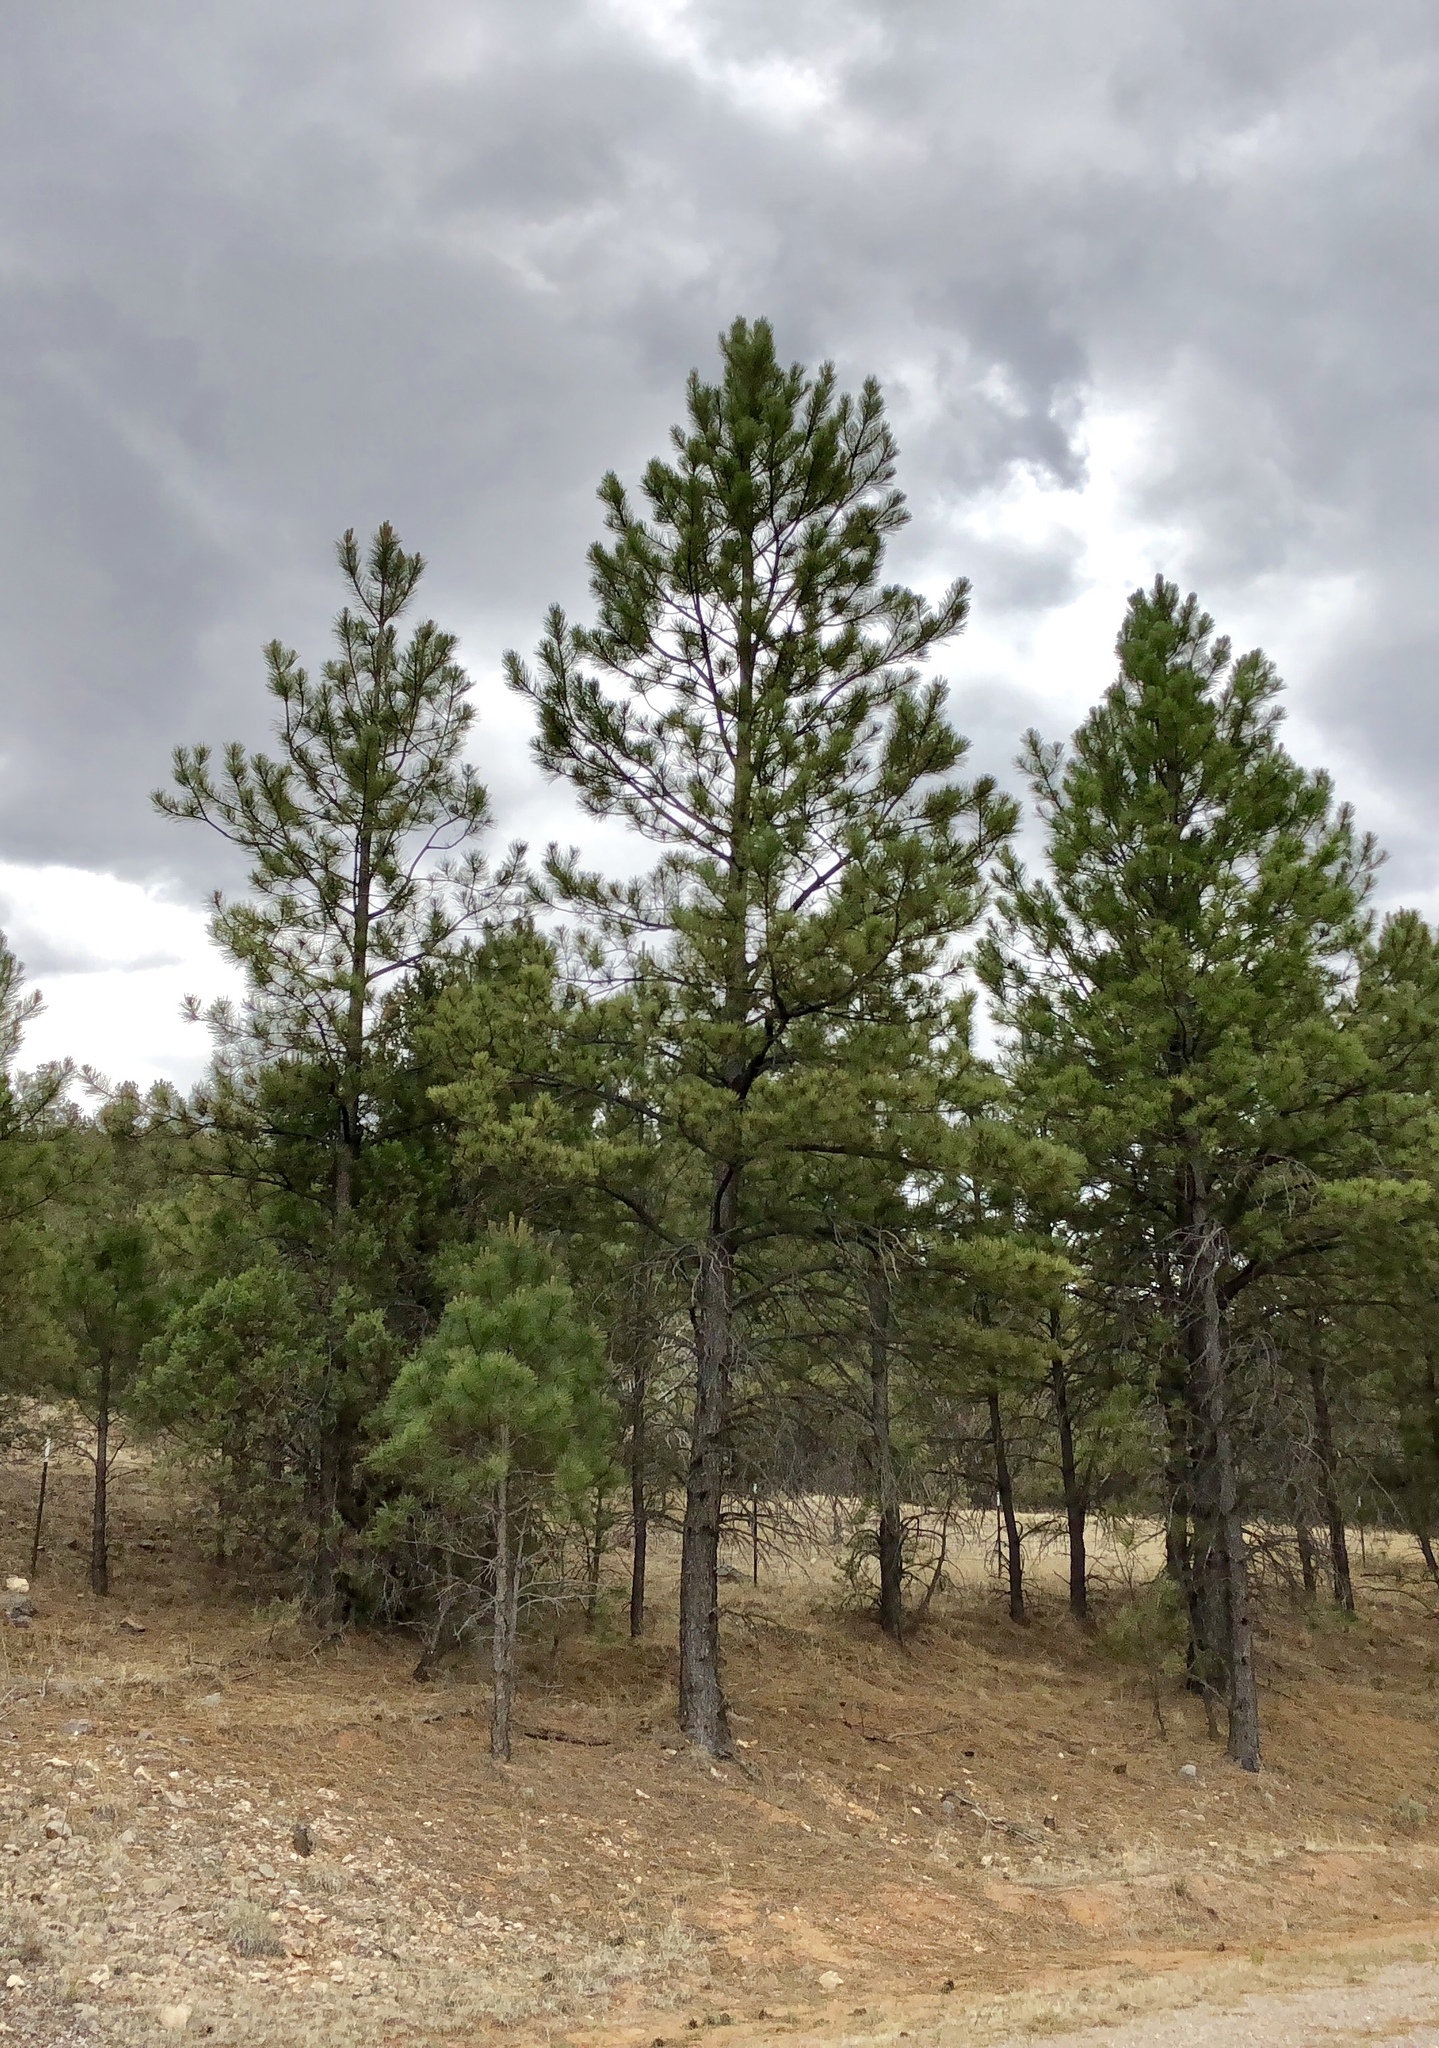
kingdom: Plantae
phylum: Tracheophyta
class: Pinopsida
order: Pinales
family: Pinaceae
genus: Pinus
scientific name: Pinus ponderosa
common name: Western yellow-pine
